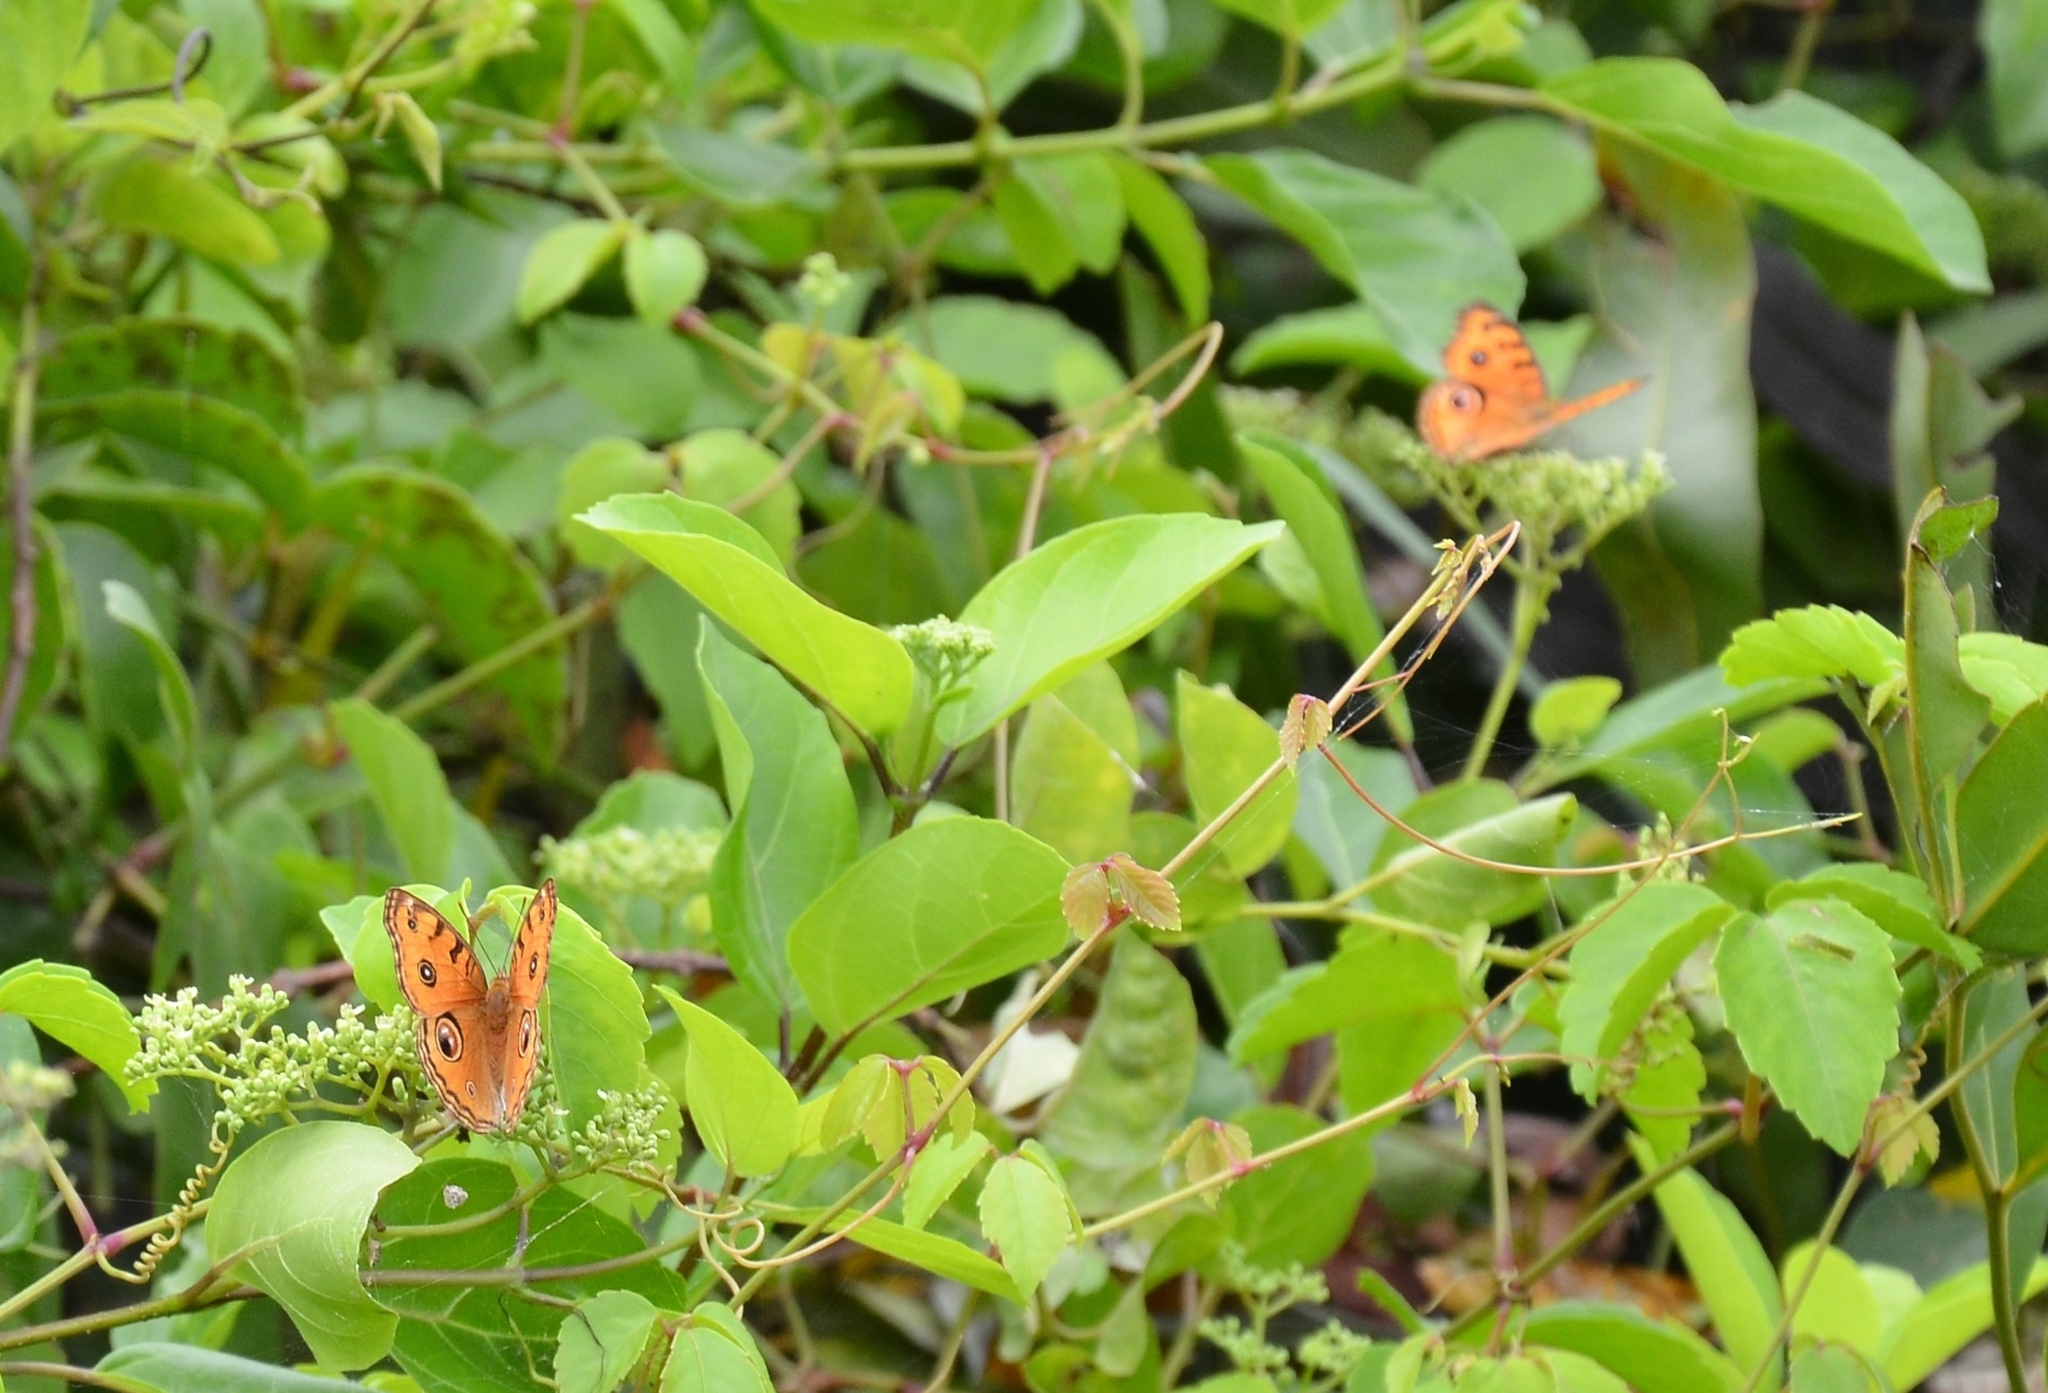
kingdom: Animalia
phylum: Arthropoda
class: Insecta
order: Lepidoptera
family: Nymphalidae
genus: Junonia
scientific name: Junonia almana
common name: Peacock pansy
